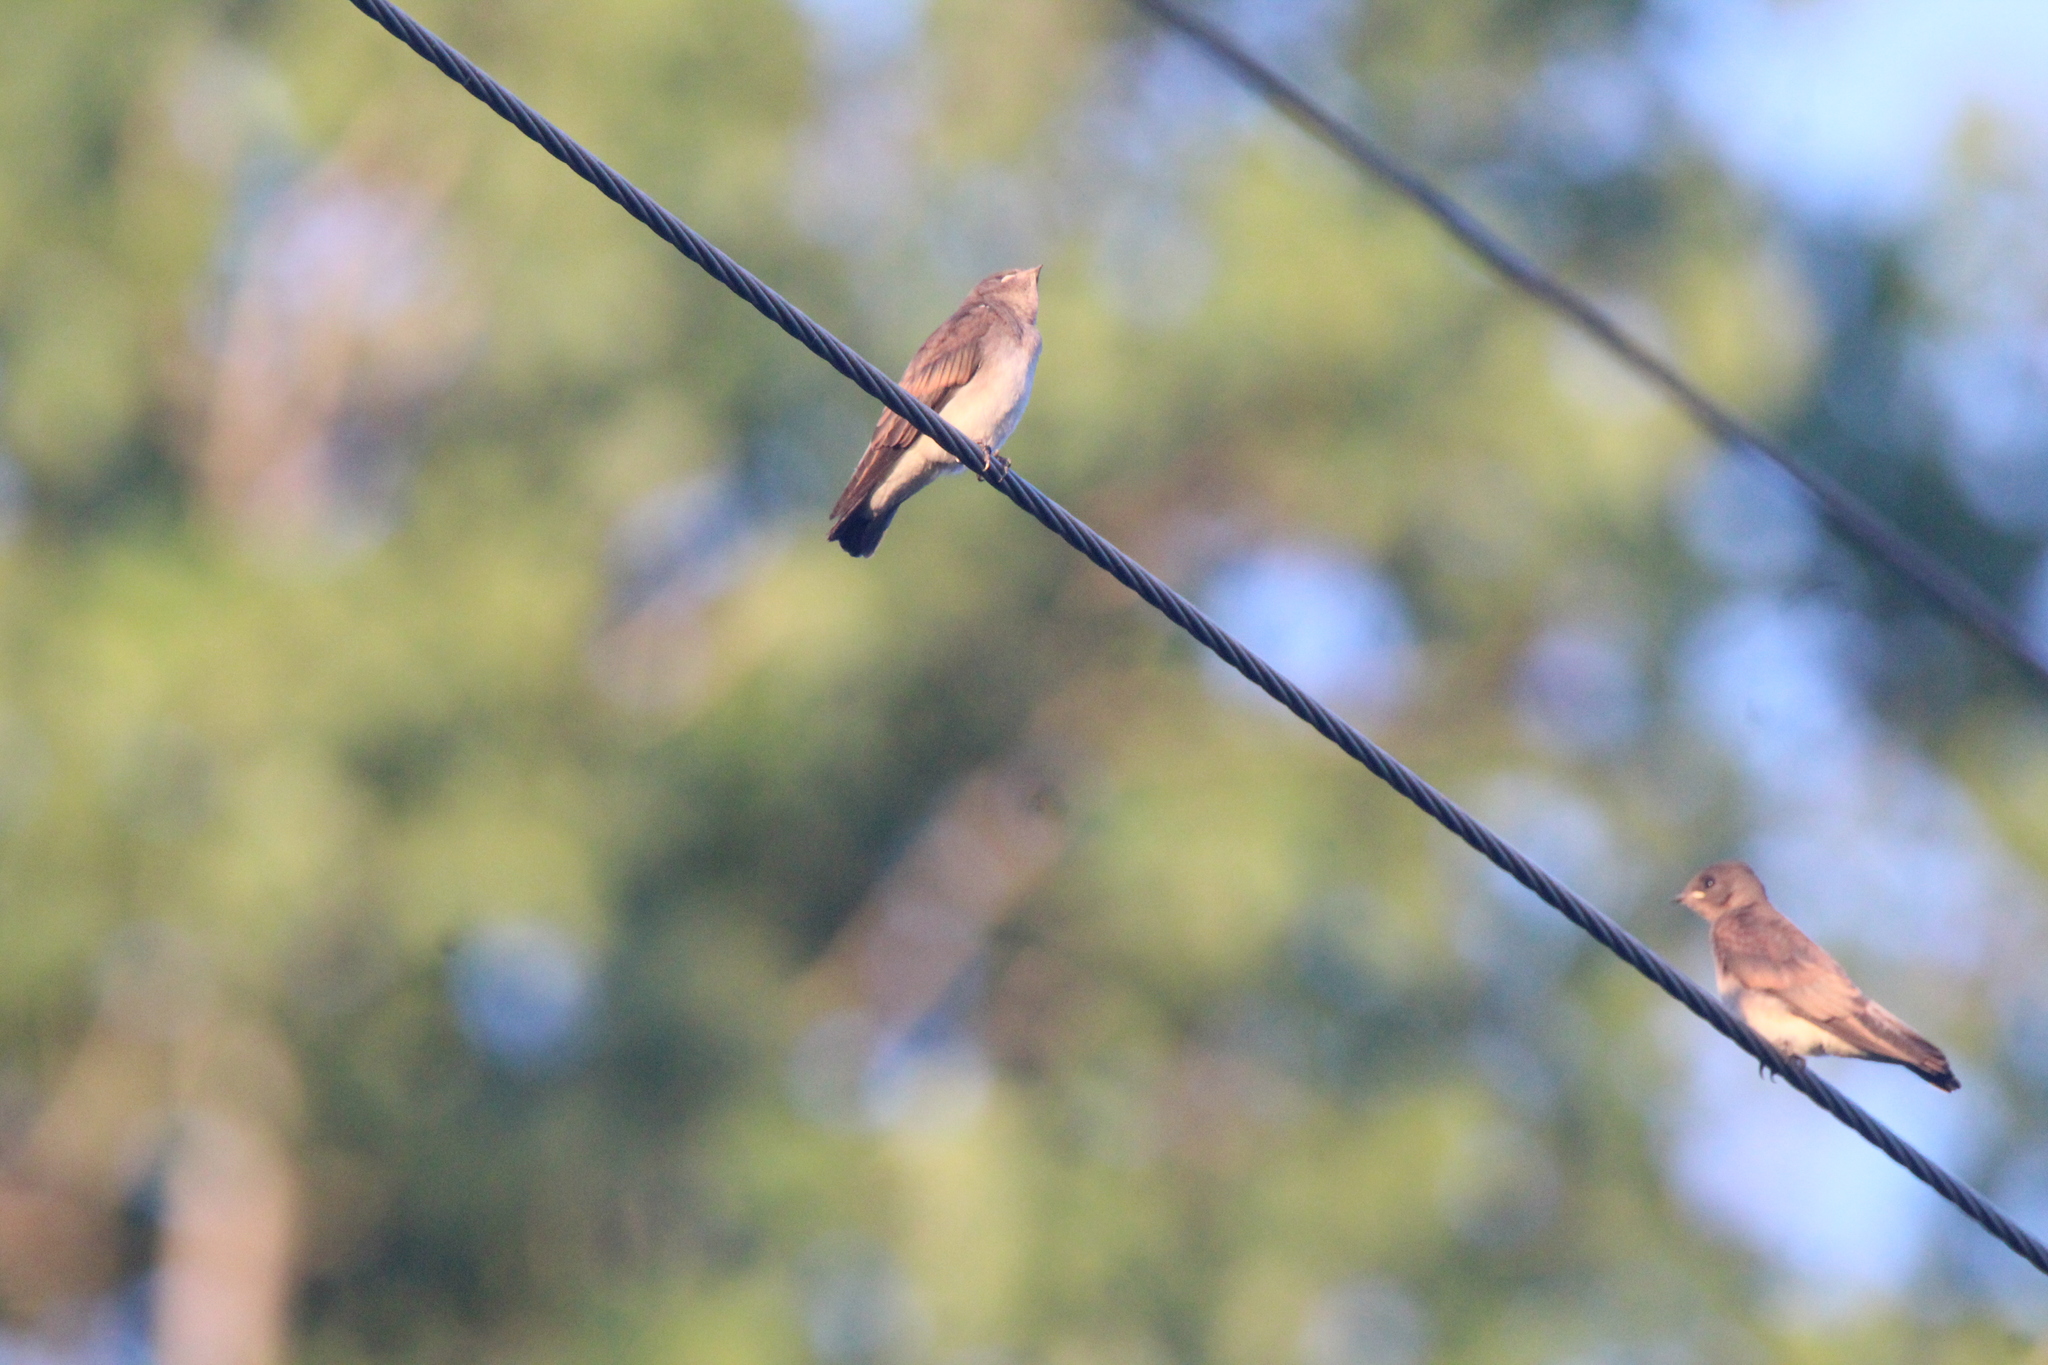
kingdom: Animalia
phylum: Chordata
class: Aves
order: Passeriformes
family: Hirundinidae
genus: Stelgidopteryx
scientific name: Stelgidopteryx serripennis
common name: Northern rough-winged swallow
